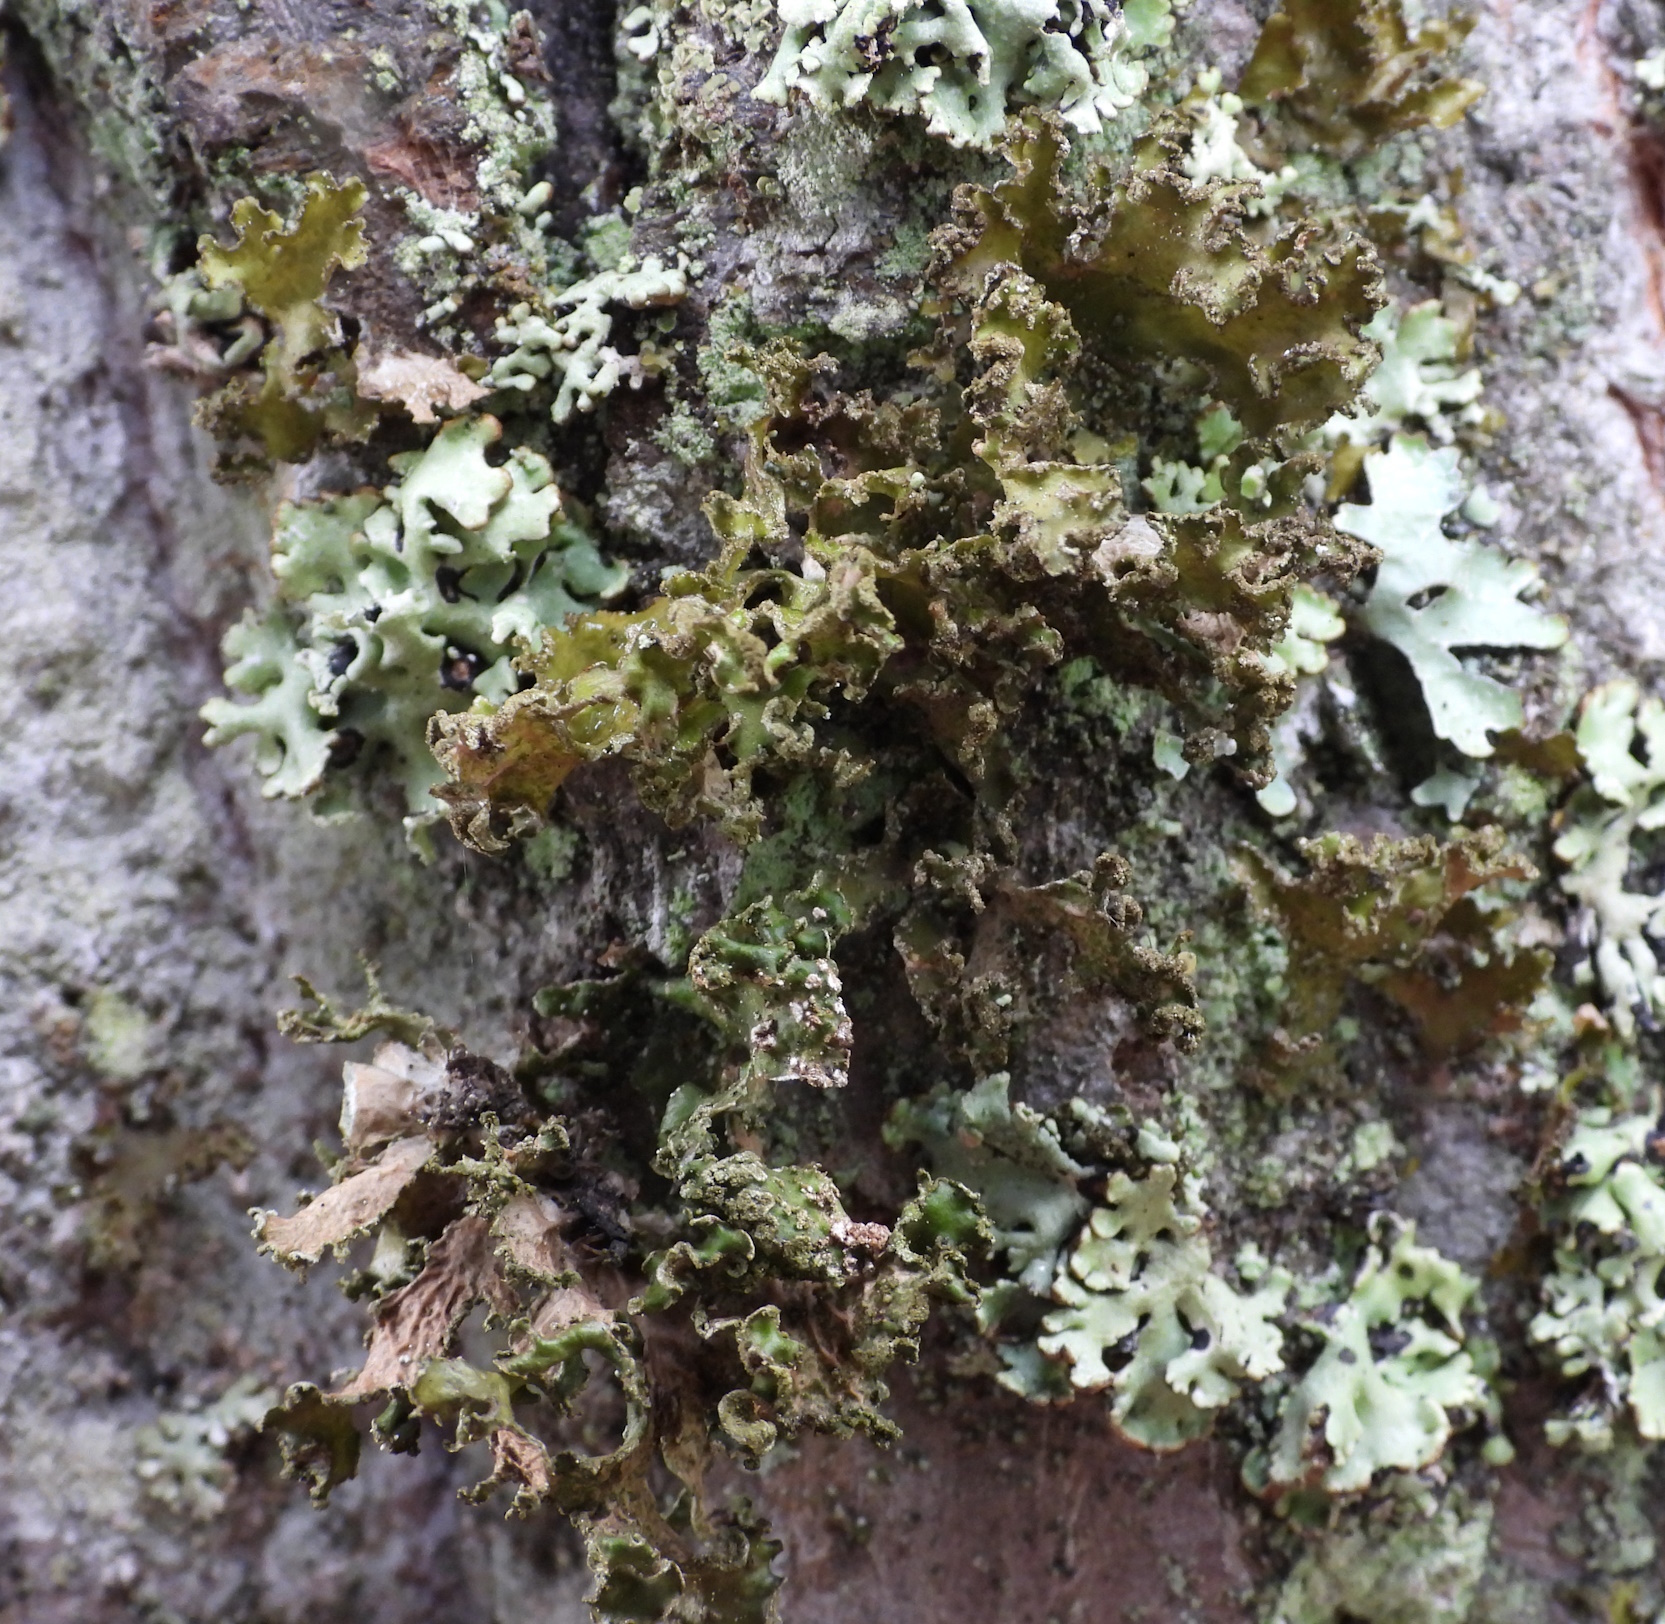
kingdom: Fungi
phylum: Ascomycota
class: Lecanoromycetes
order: Lecanorales
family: Parmeliaceae
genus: Nephromopsis
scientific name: Nephromopsis chlorophylla
